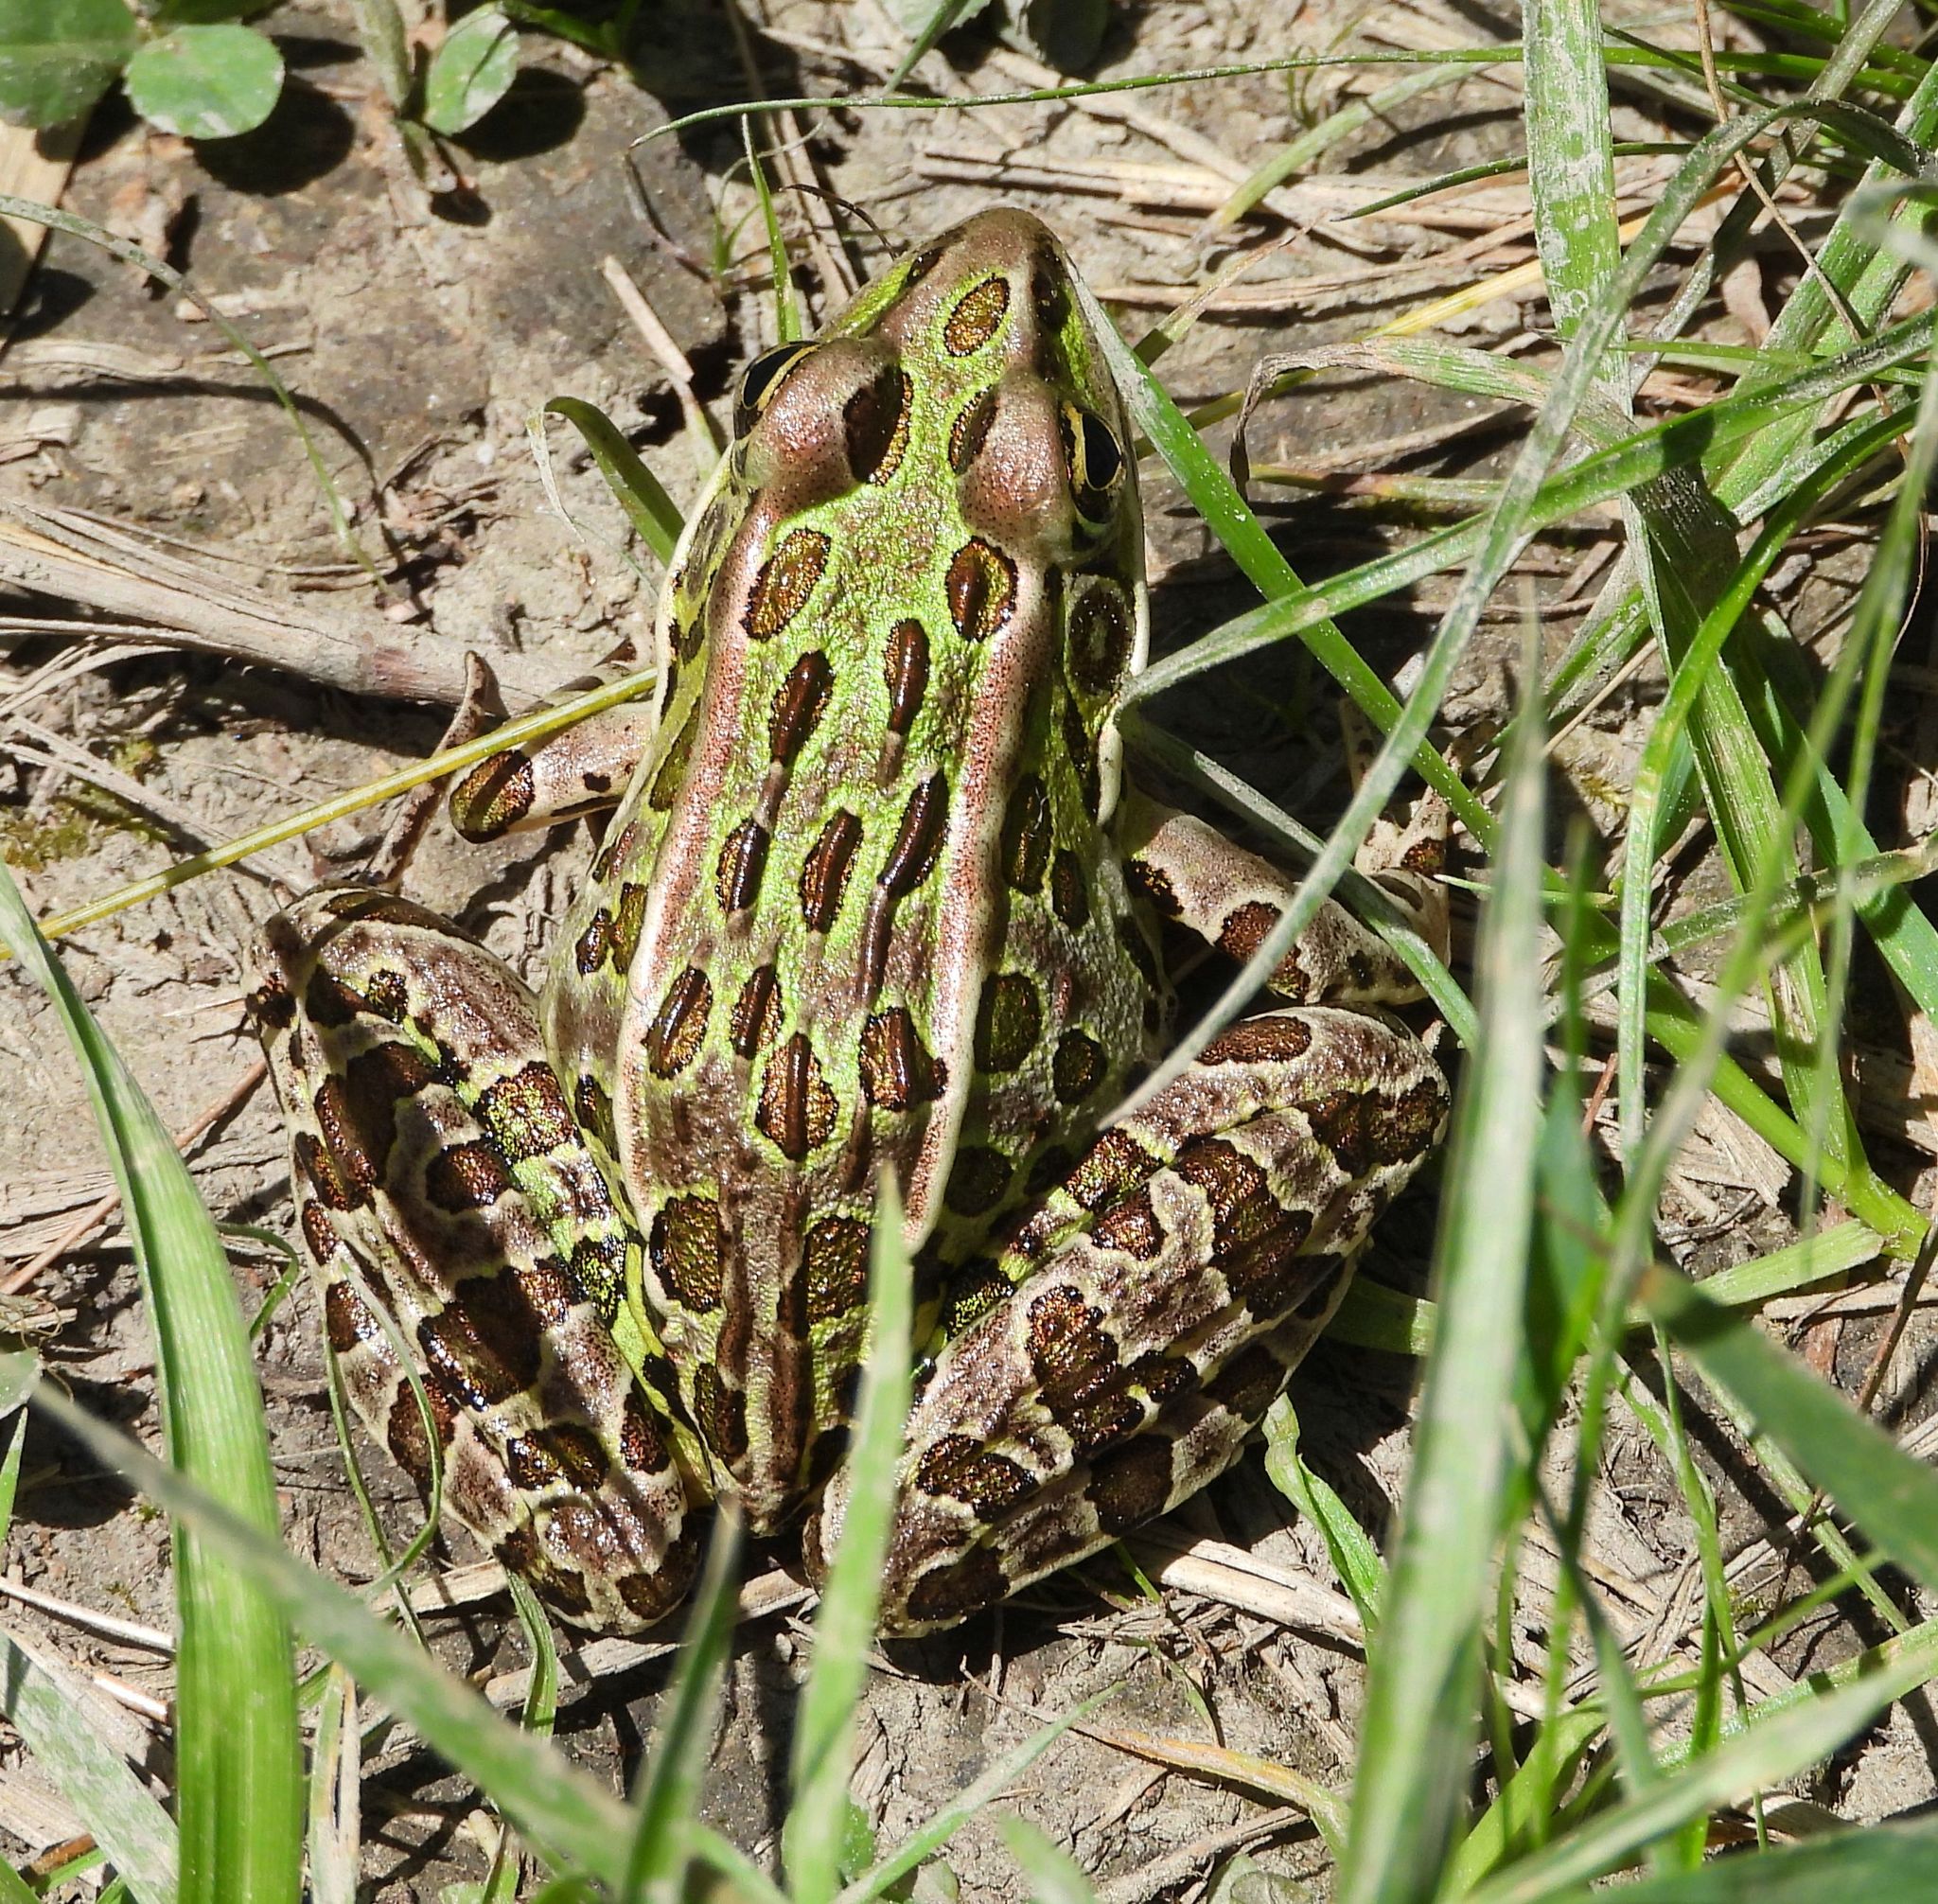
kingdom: Animalia
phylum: Chordata
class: Amphibia
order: Anura
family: Ranidae
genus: Lithobates
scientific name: Lithobates pipiens
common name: Northern leopard frog
